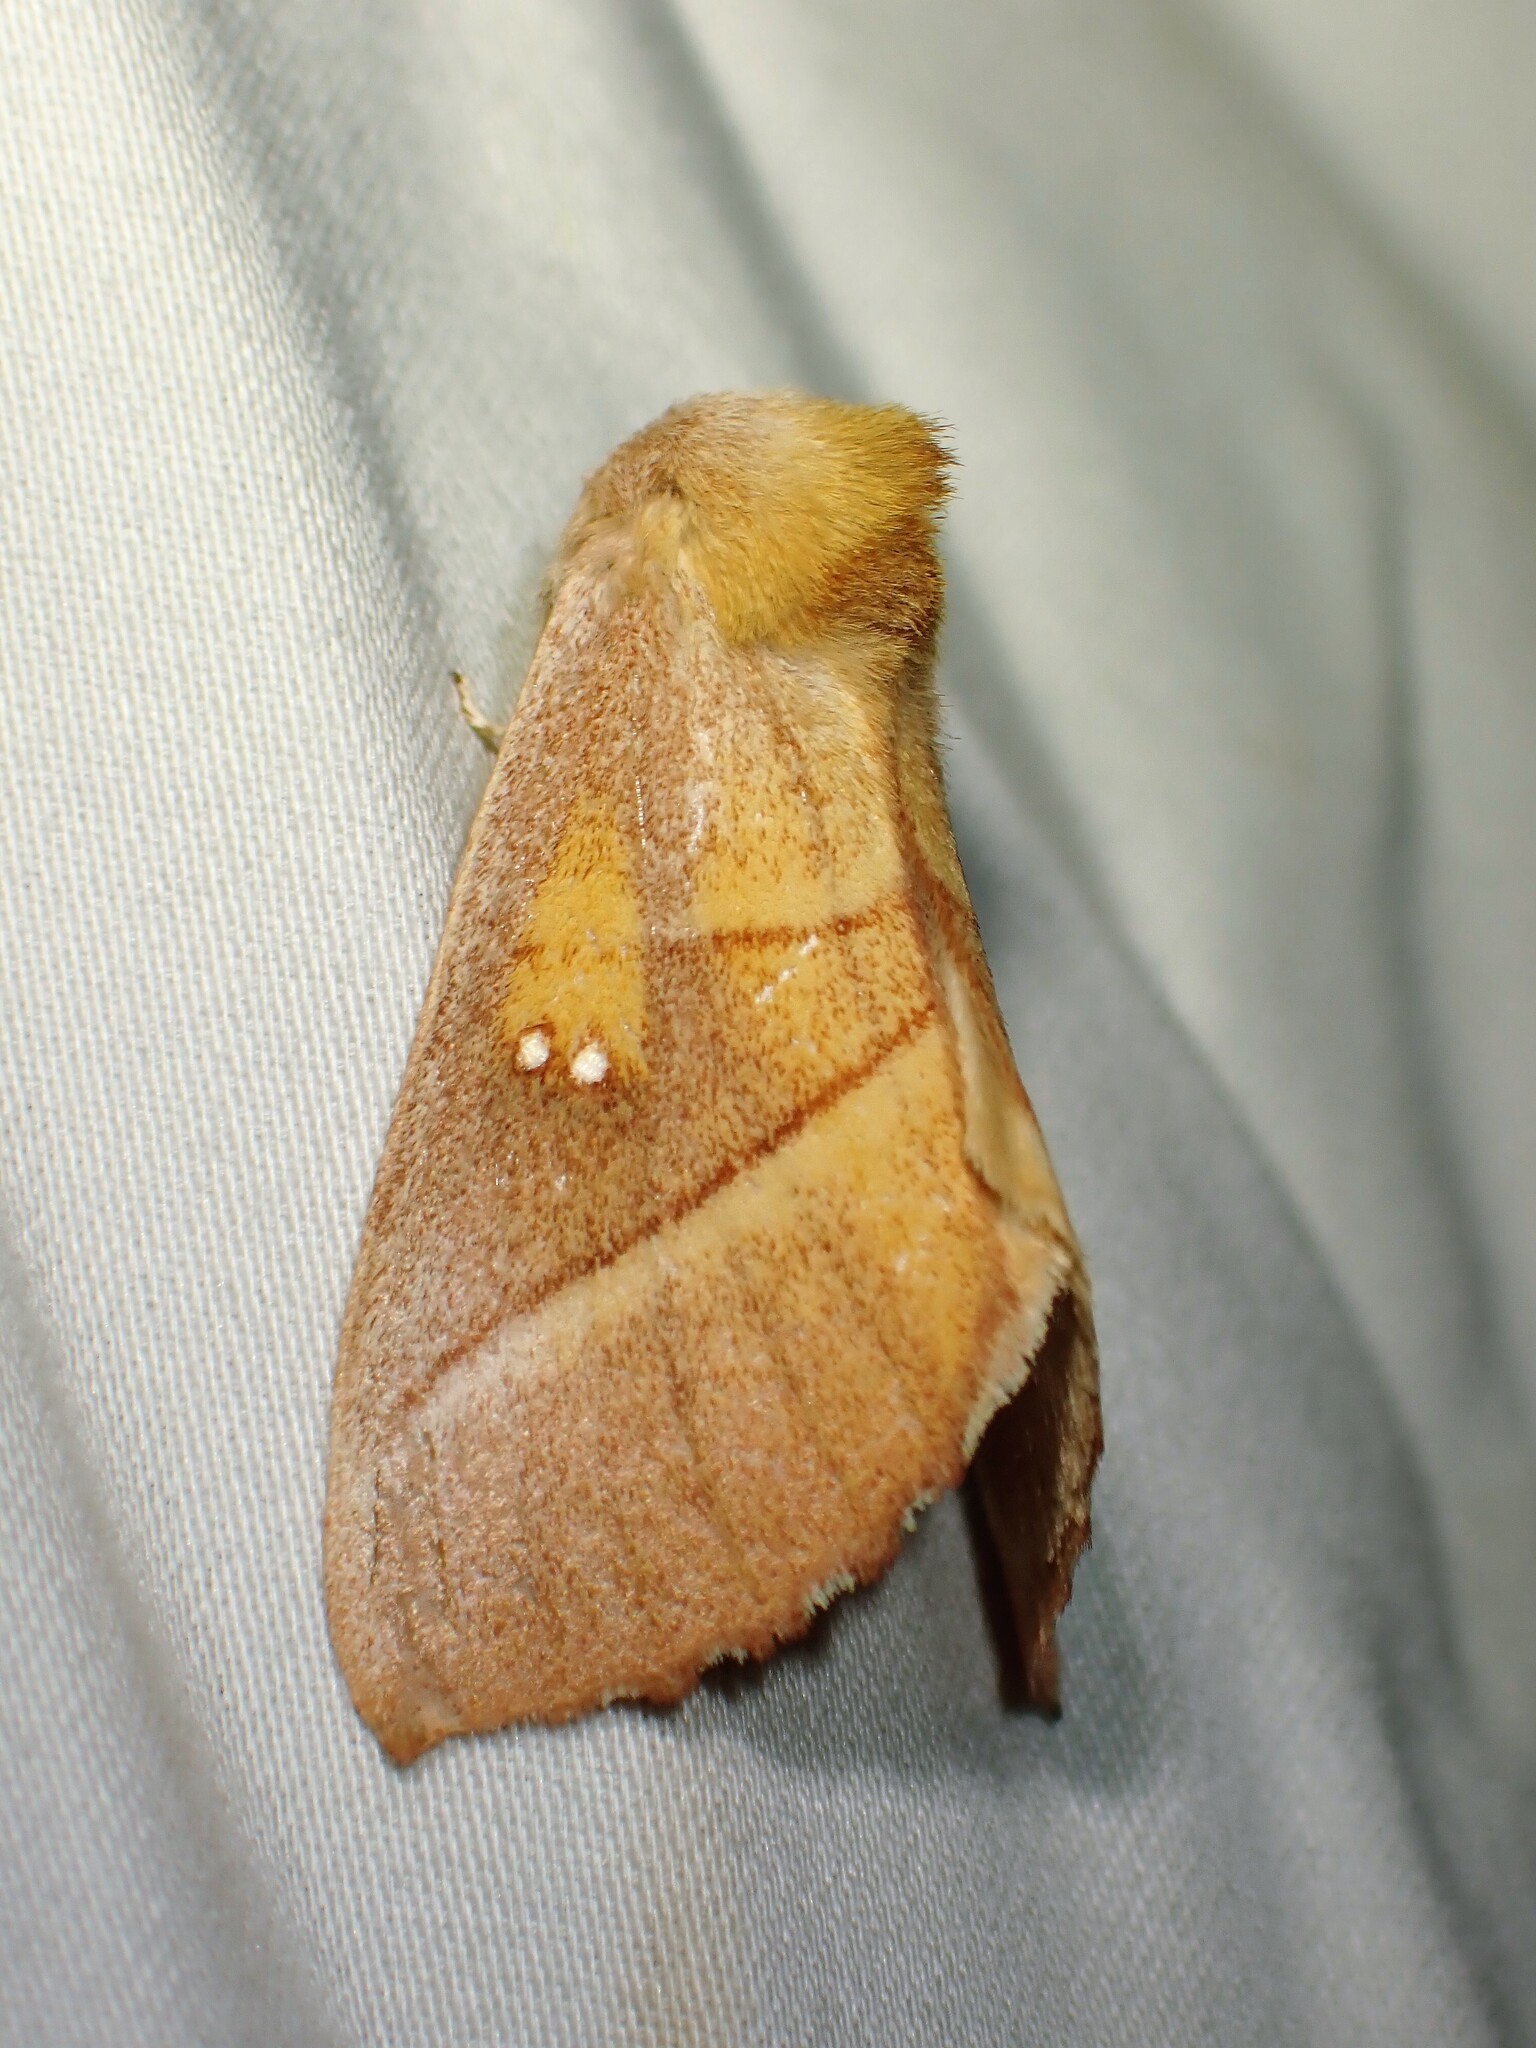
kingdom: Animalia
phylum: Arthropoda
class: Insecta
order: Lepidoptera
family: Notodontidae
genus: Nadata
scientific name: Nadata gibbosa
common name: White-dotted prominent
